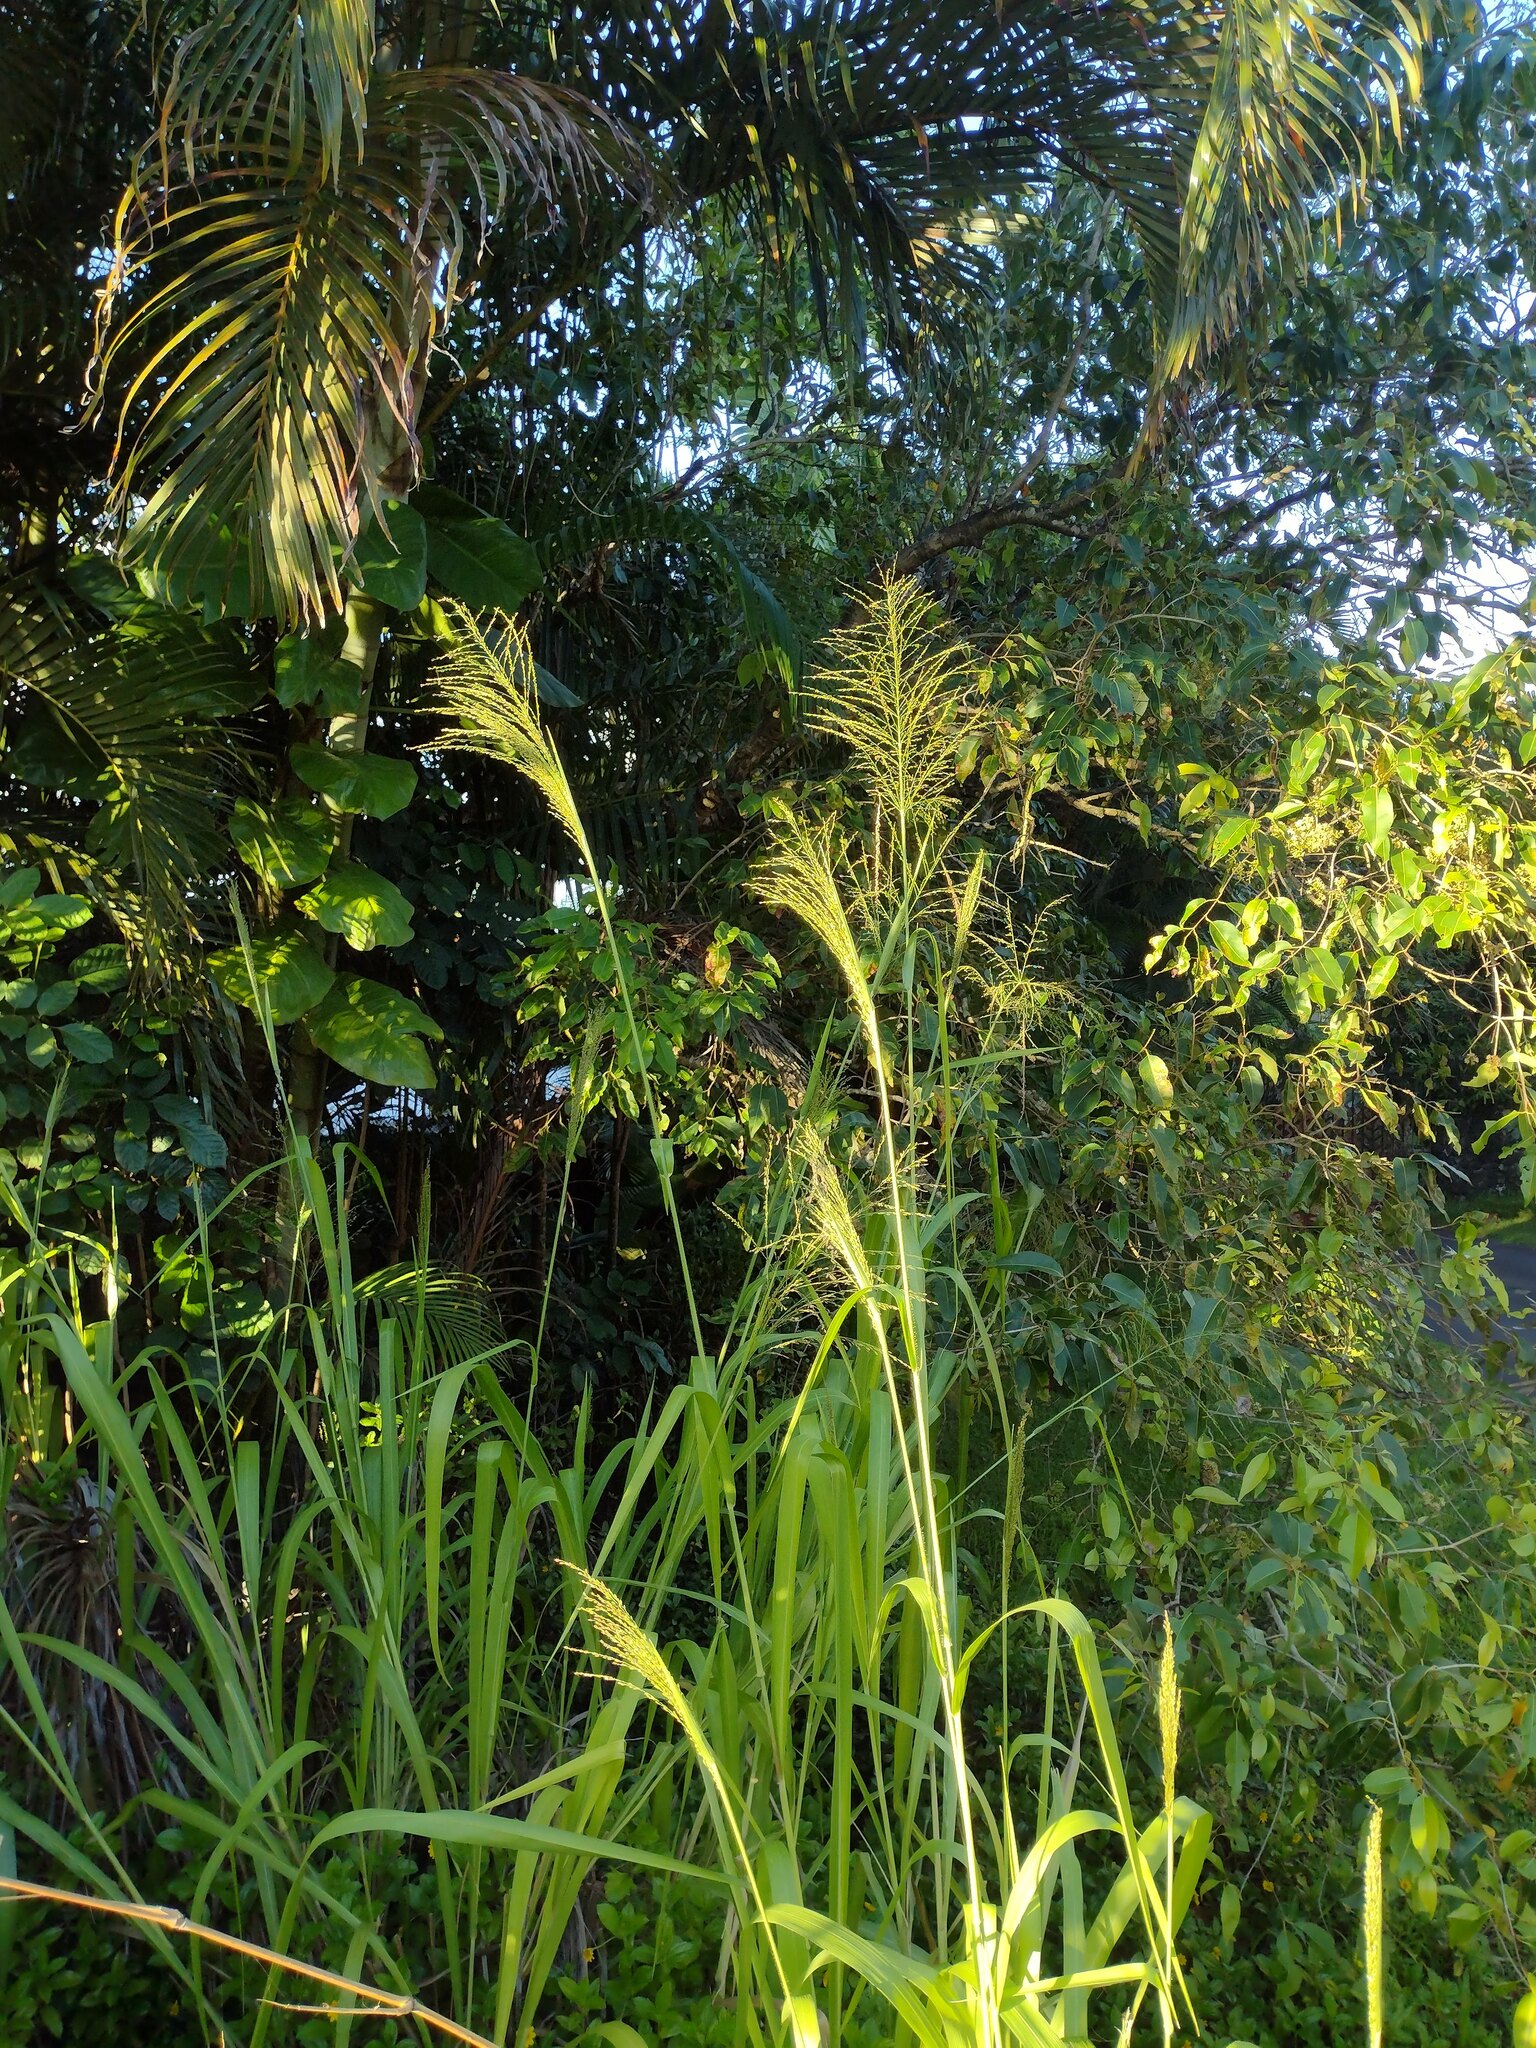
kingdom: Plantae
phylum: Tracheophyta
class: Liliopsida
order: Poales
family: Poaceae
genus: Megathyrsus
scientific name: Megathyrsus maximus
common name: Guineagrass
